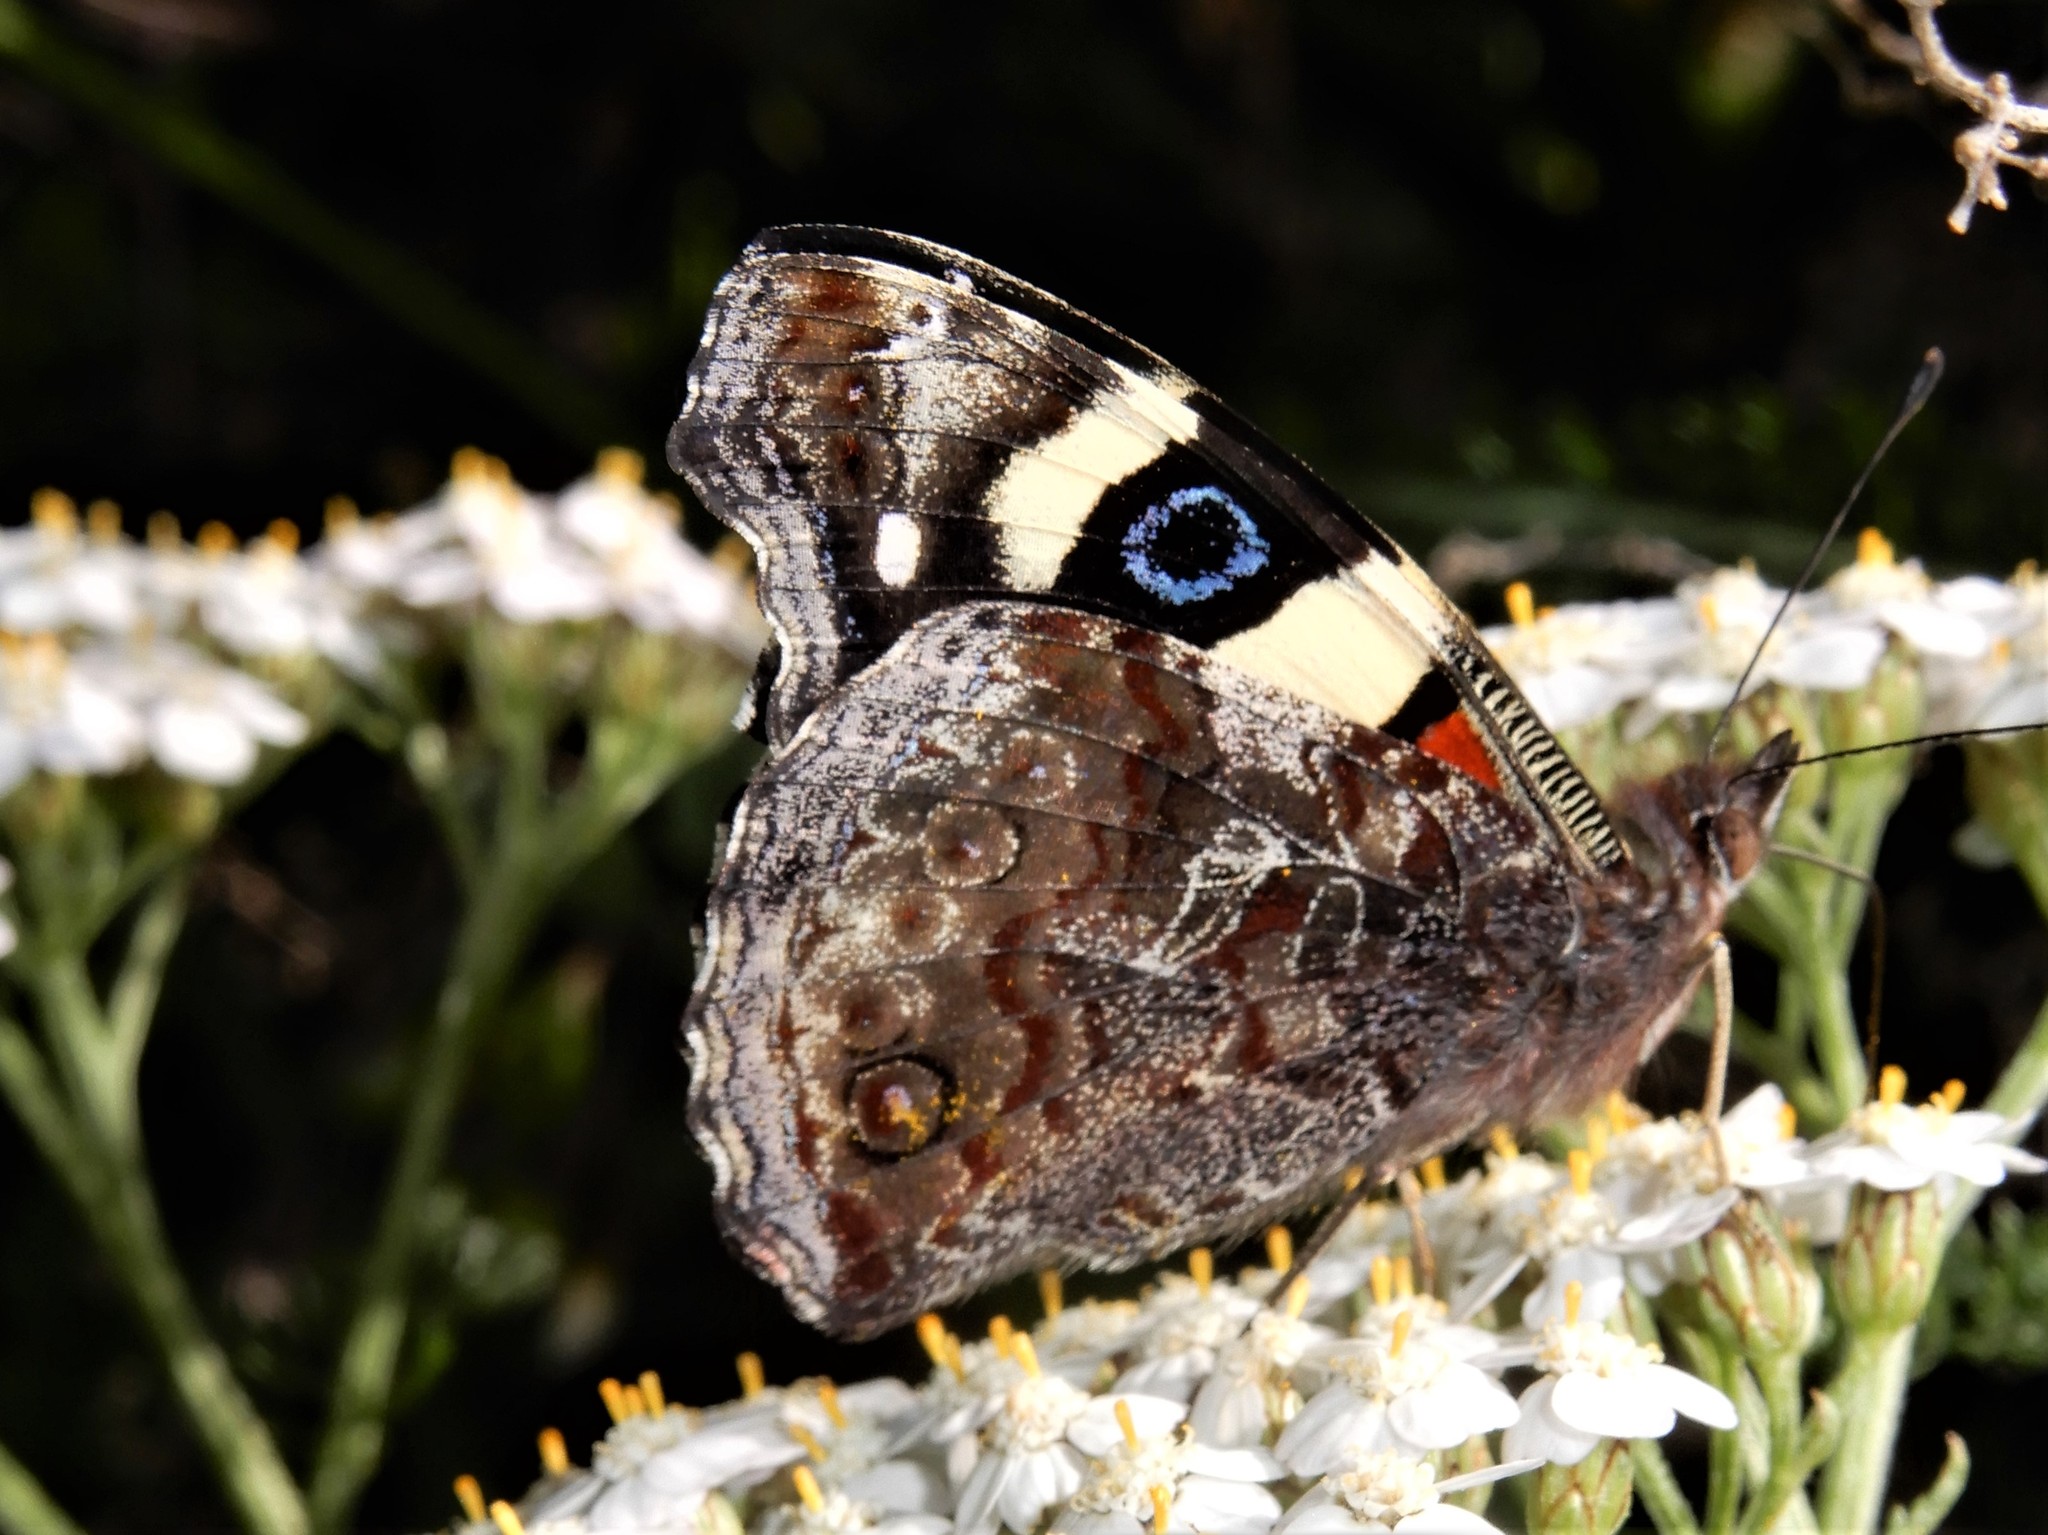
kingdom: Animalia
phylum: Arthropoda
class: Insecta
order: Lepidoptera
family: Nymphalidae
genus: Vanessa
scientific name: Vanessa itea
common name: Yellow admiral
